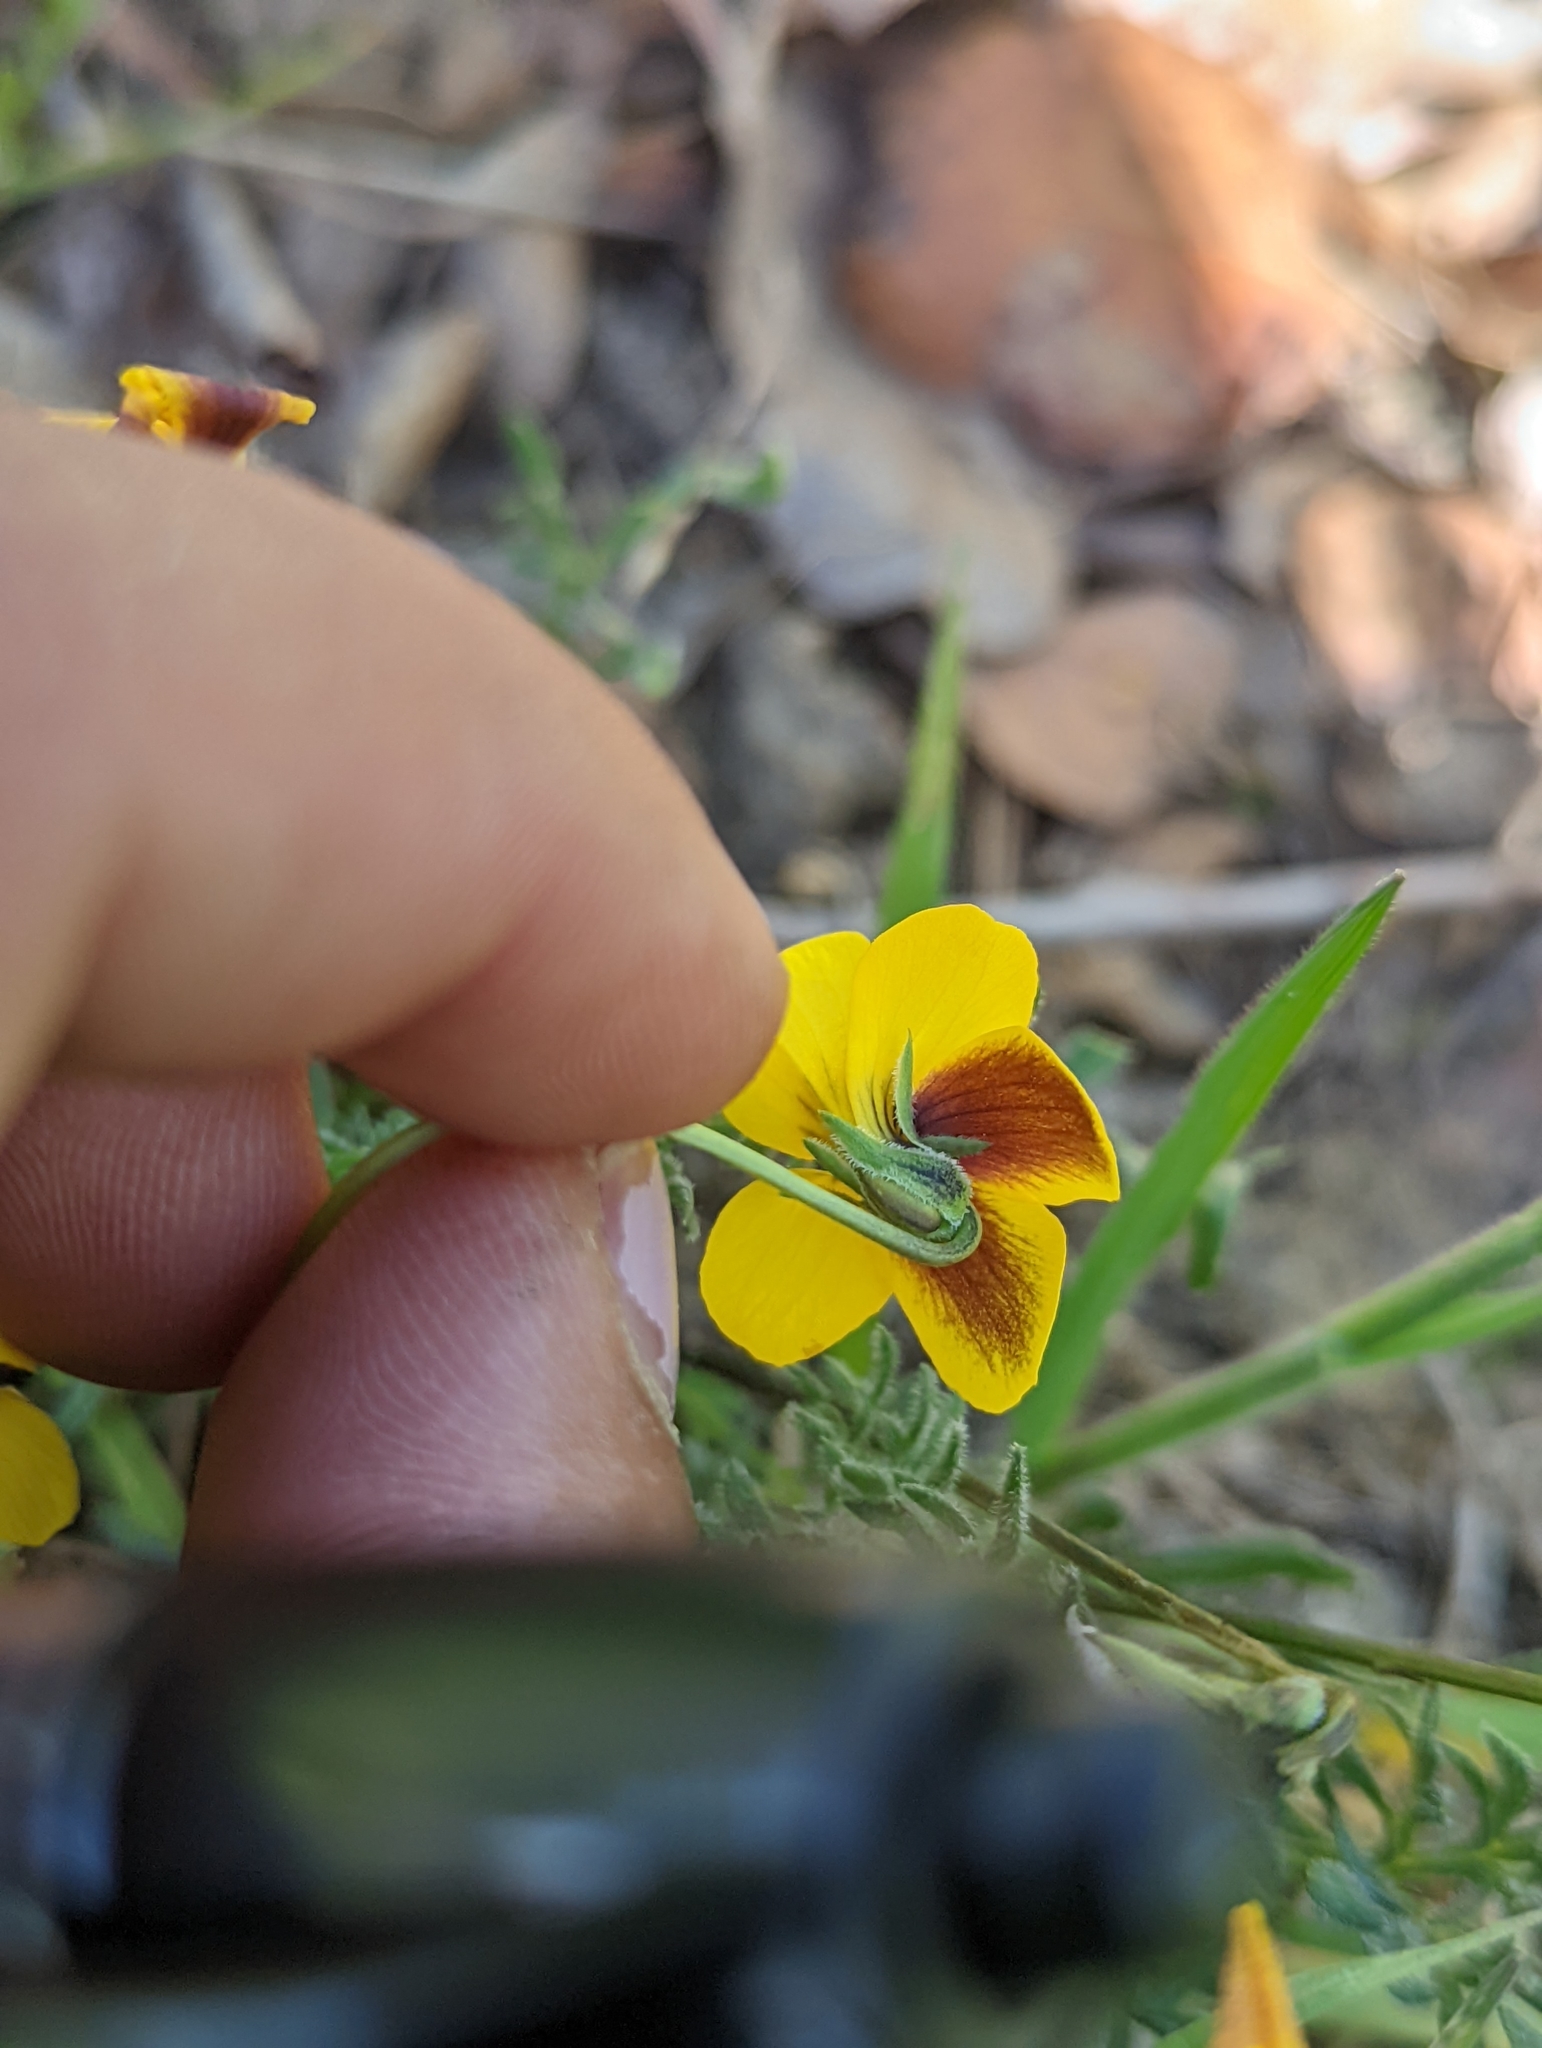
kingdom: Plantae
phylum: Tracheophyta
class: Magnoliopsida
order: Malpighiales
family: Violaceae
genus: Viola
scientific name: Viola douglasii
